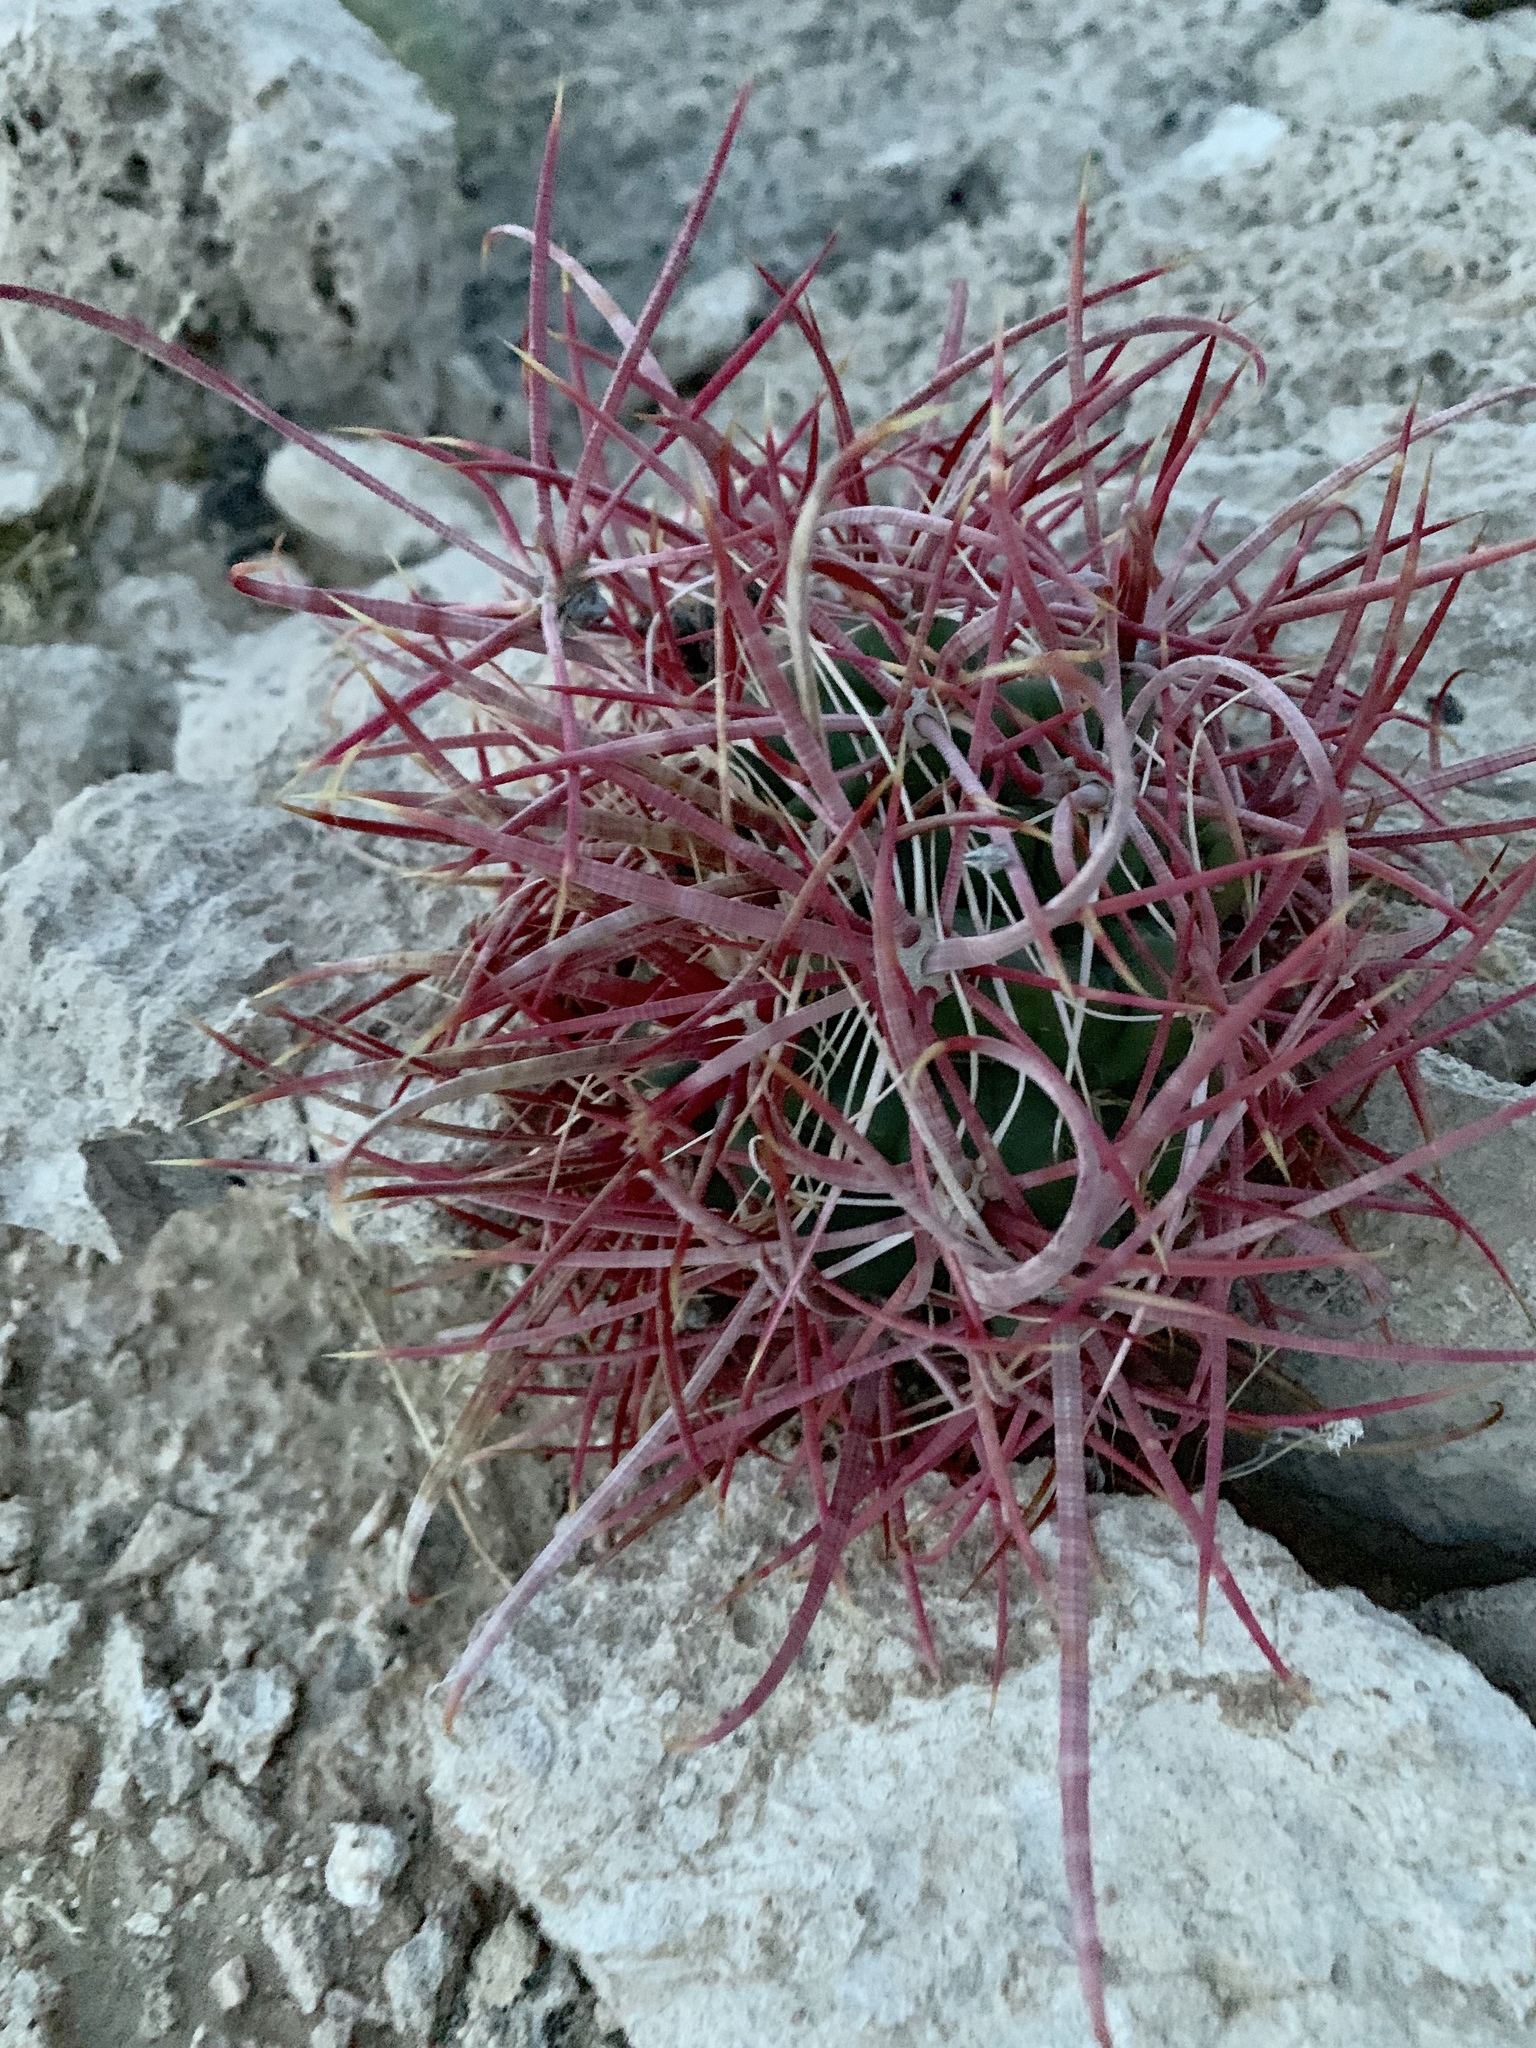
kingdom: Plantae
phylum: Tracheophyta
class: Magnoliopsida
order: Caryophyllales
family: Cactaceae
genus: Ferocactus
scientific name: Ferocactus cylindraceus
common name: California barrel cactus
